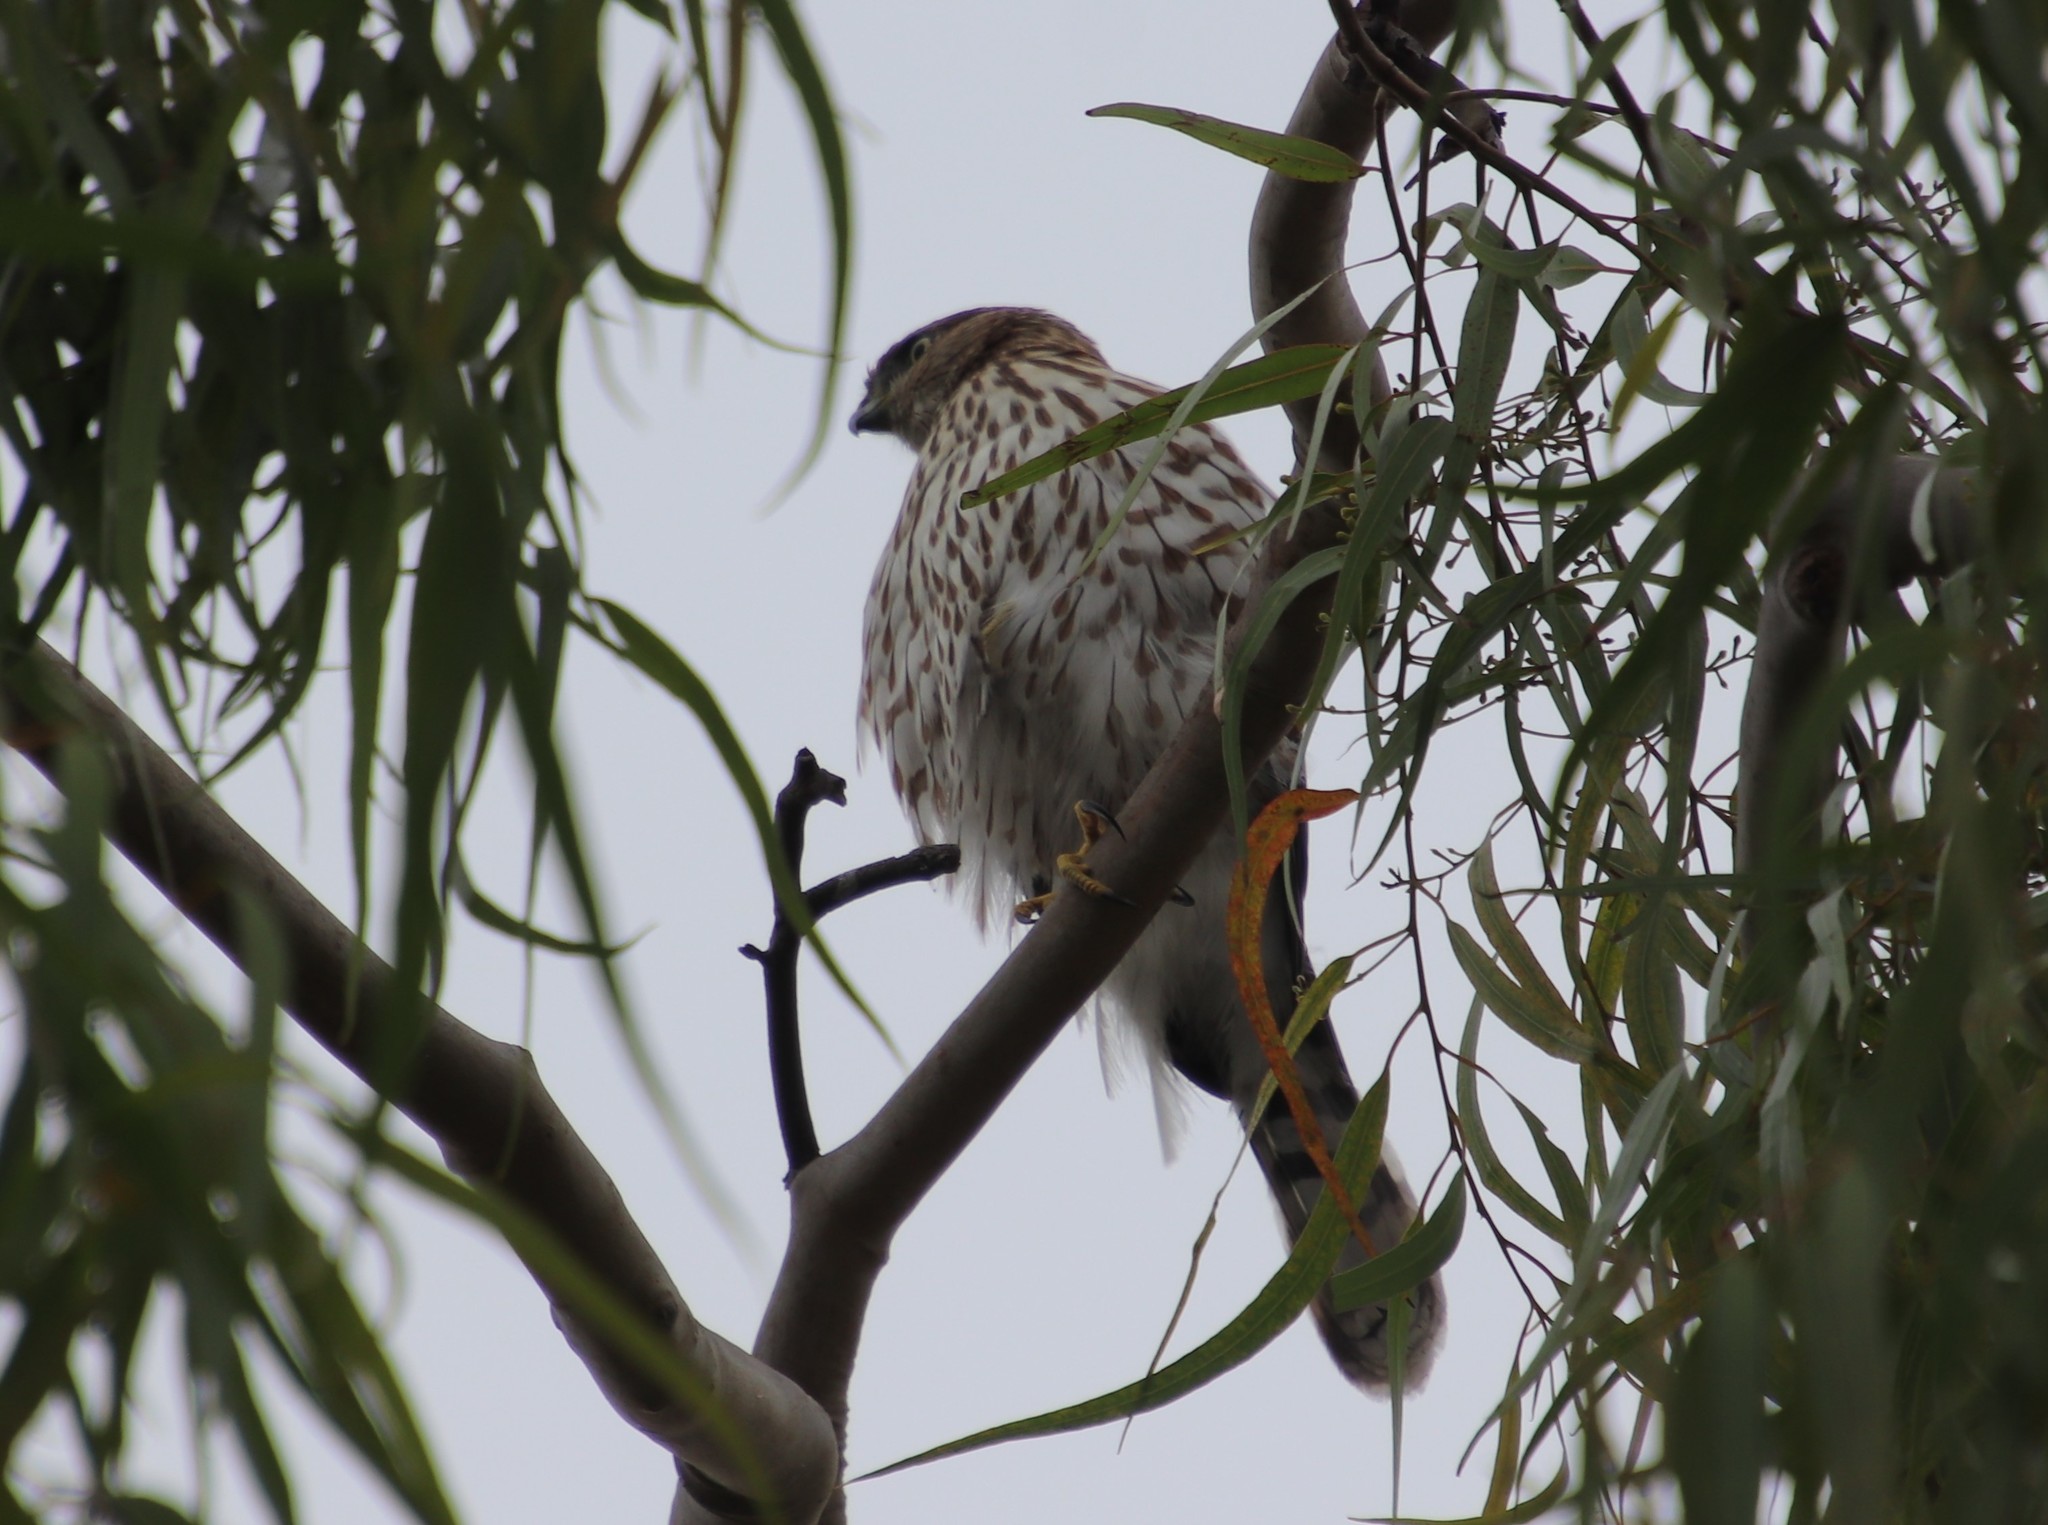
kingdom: Animalia
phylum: Chordata
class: Aves
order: Accipitriformes
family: Accipitridae
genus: Accipiter
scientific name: Accipiter cooperii
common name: Cooper's hawk
